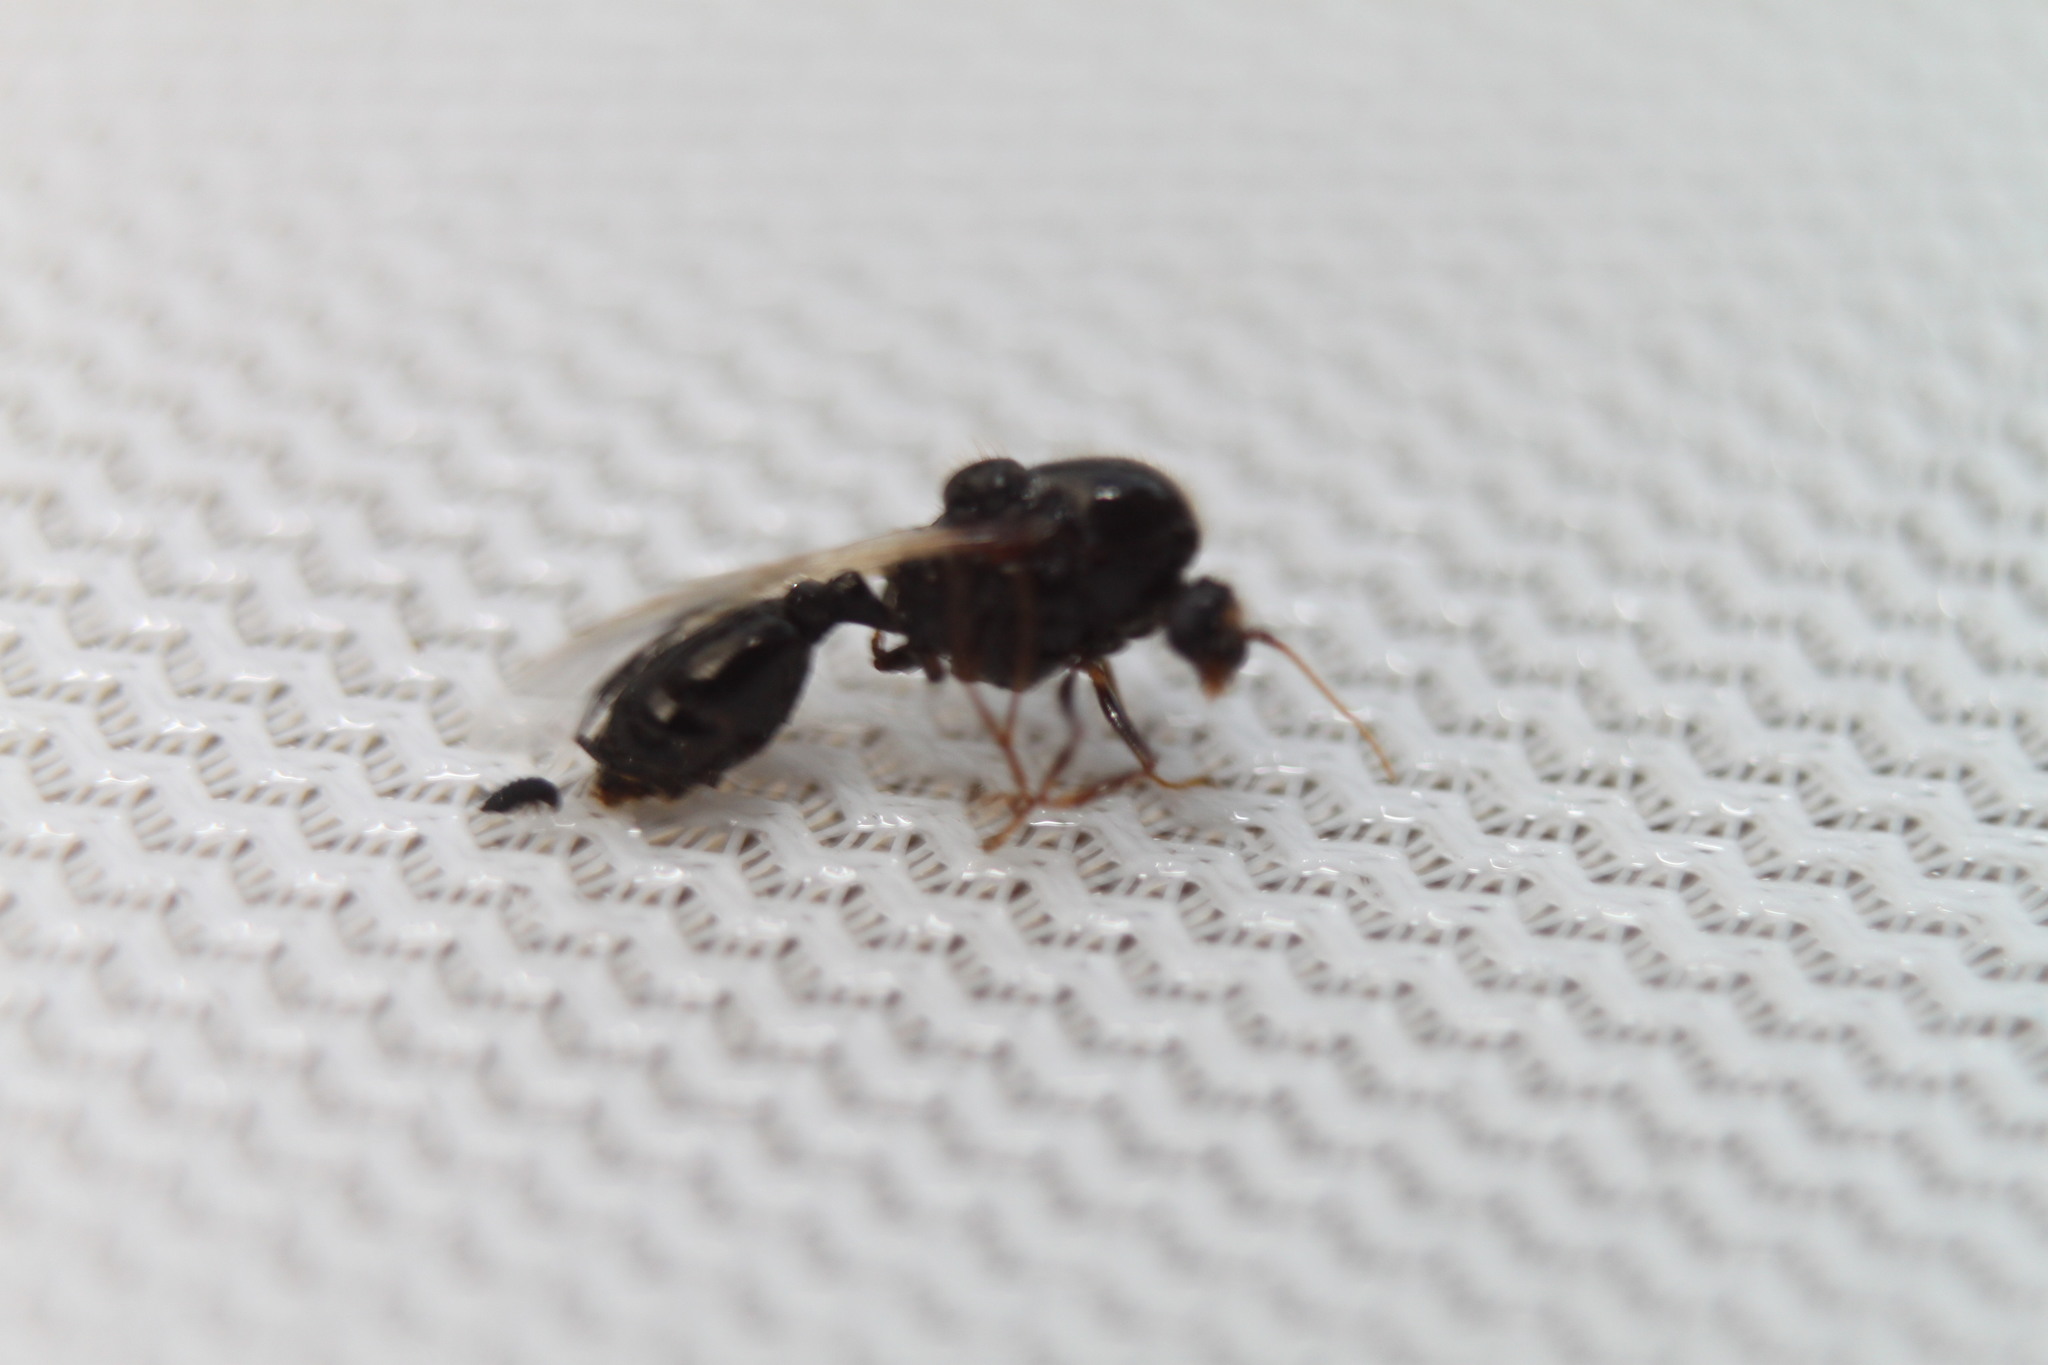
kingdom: Animalia
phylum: Arthropoda
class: Insecta
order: Hymenoptera
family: Formicidae
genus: Solenopsis
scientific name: Solenopsis invicta
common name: Red imported fire ant
